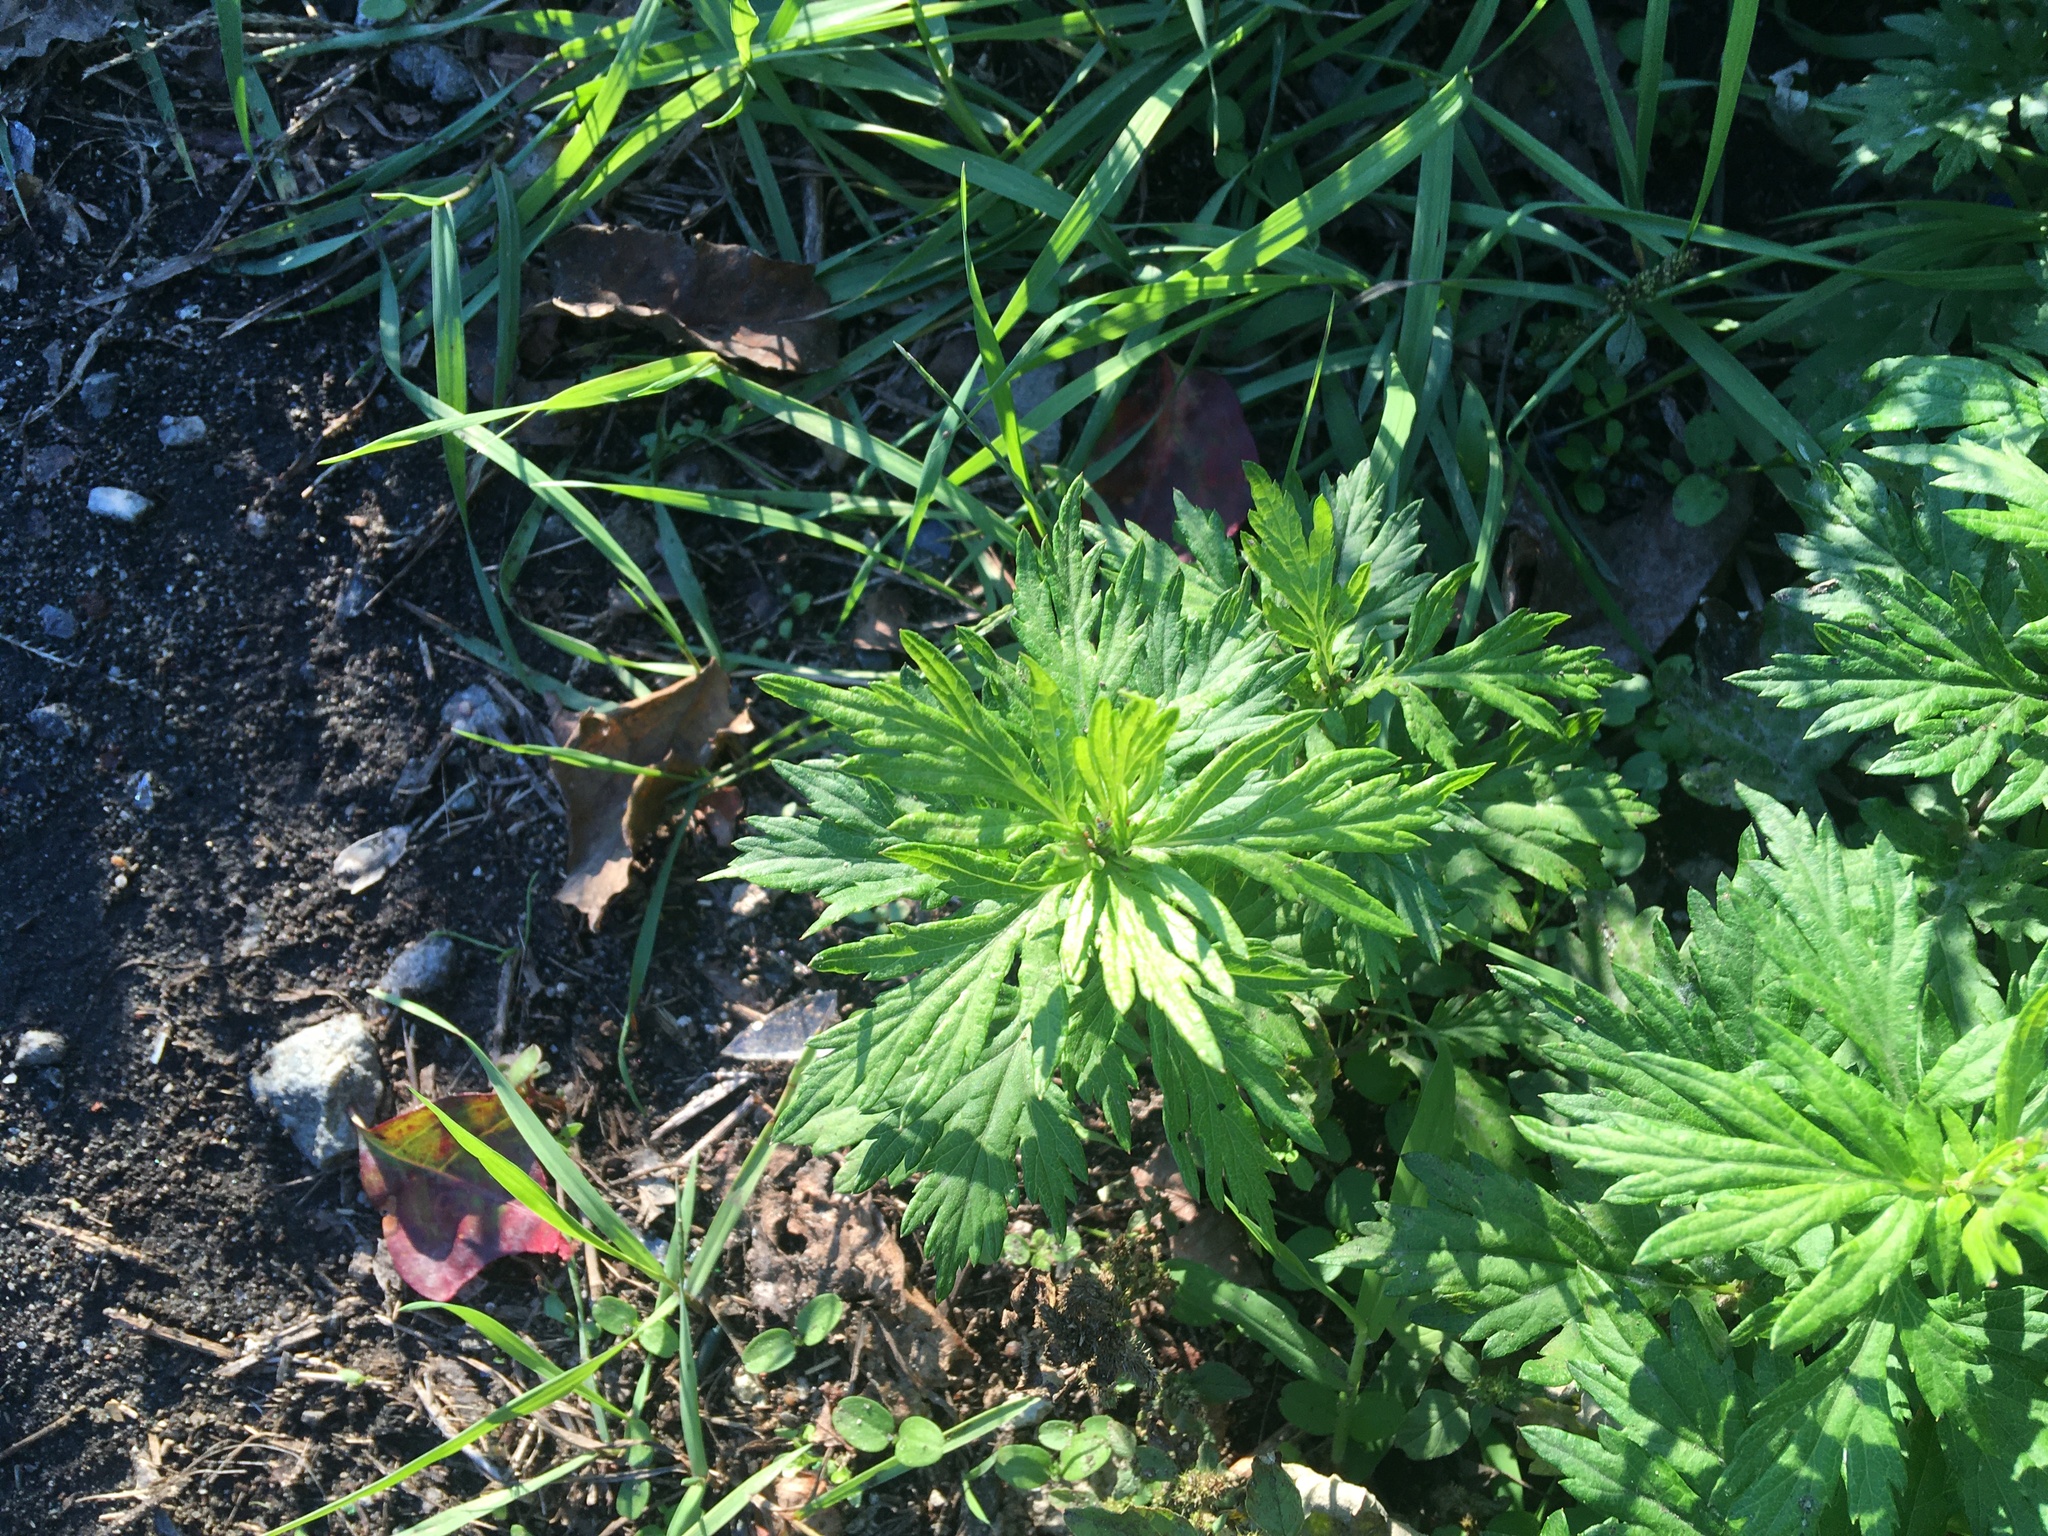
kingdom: Plantae
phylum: Tracheophyta
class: Magnoliopsida
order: Asterales
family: Asteraceae
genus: Artemisia
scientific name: Artemisia vulgaris
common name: Mugwort
